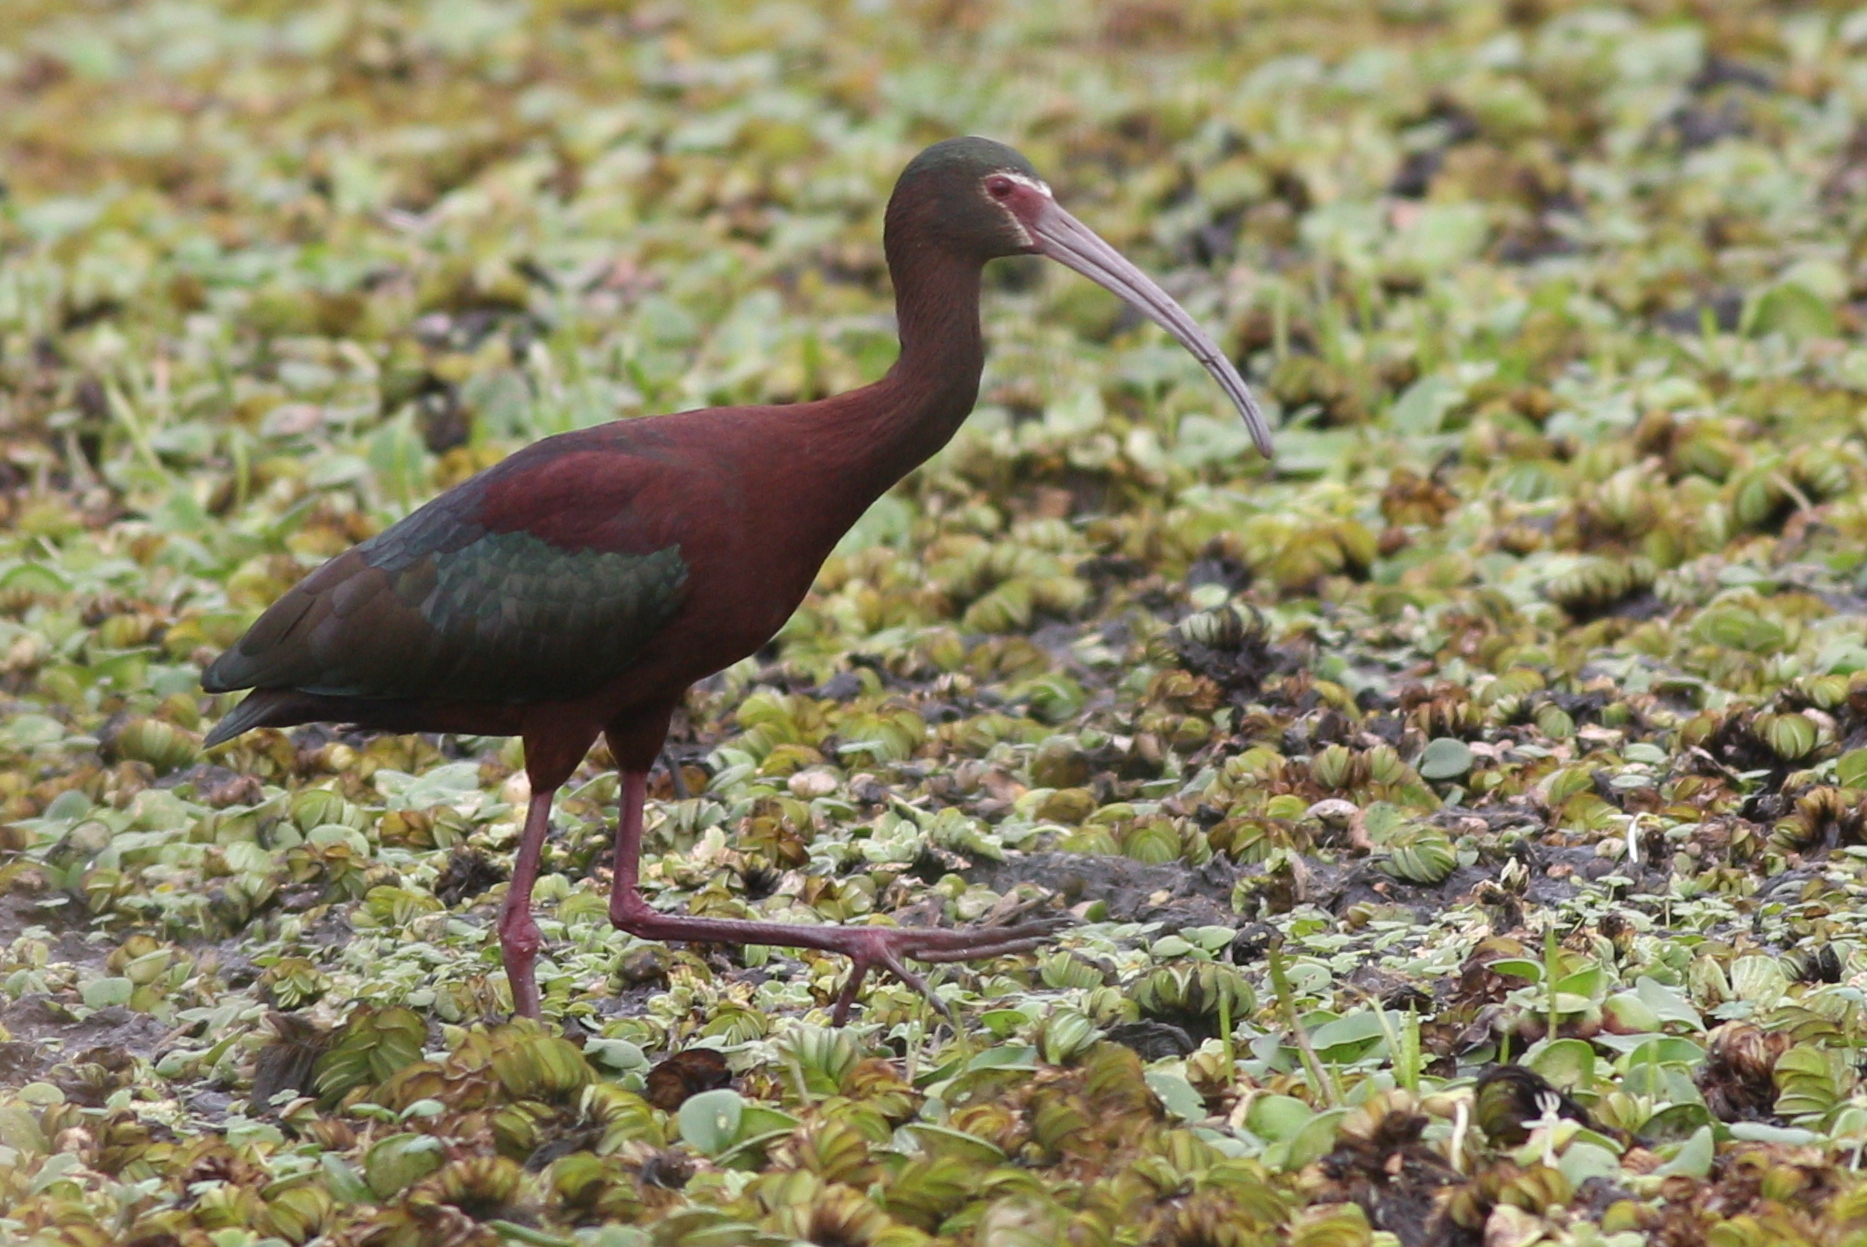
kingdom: Animalia
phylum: Chordata
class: Aves
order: Pelecaniformes
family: Threskiornithidae
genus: Plegadis
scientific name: Plegadis chihi
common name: White-faced ibis
